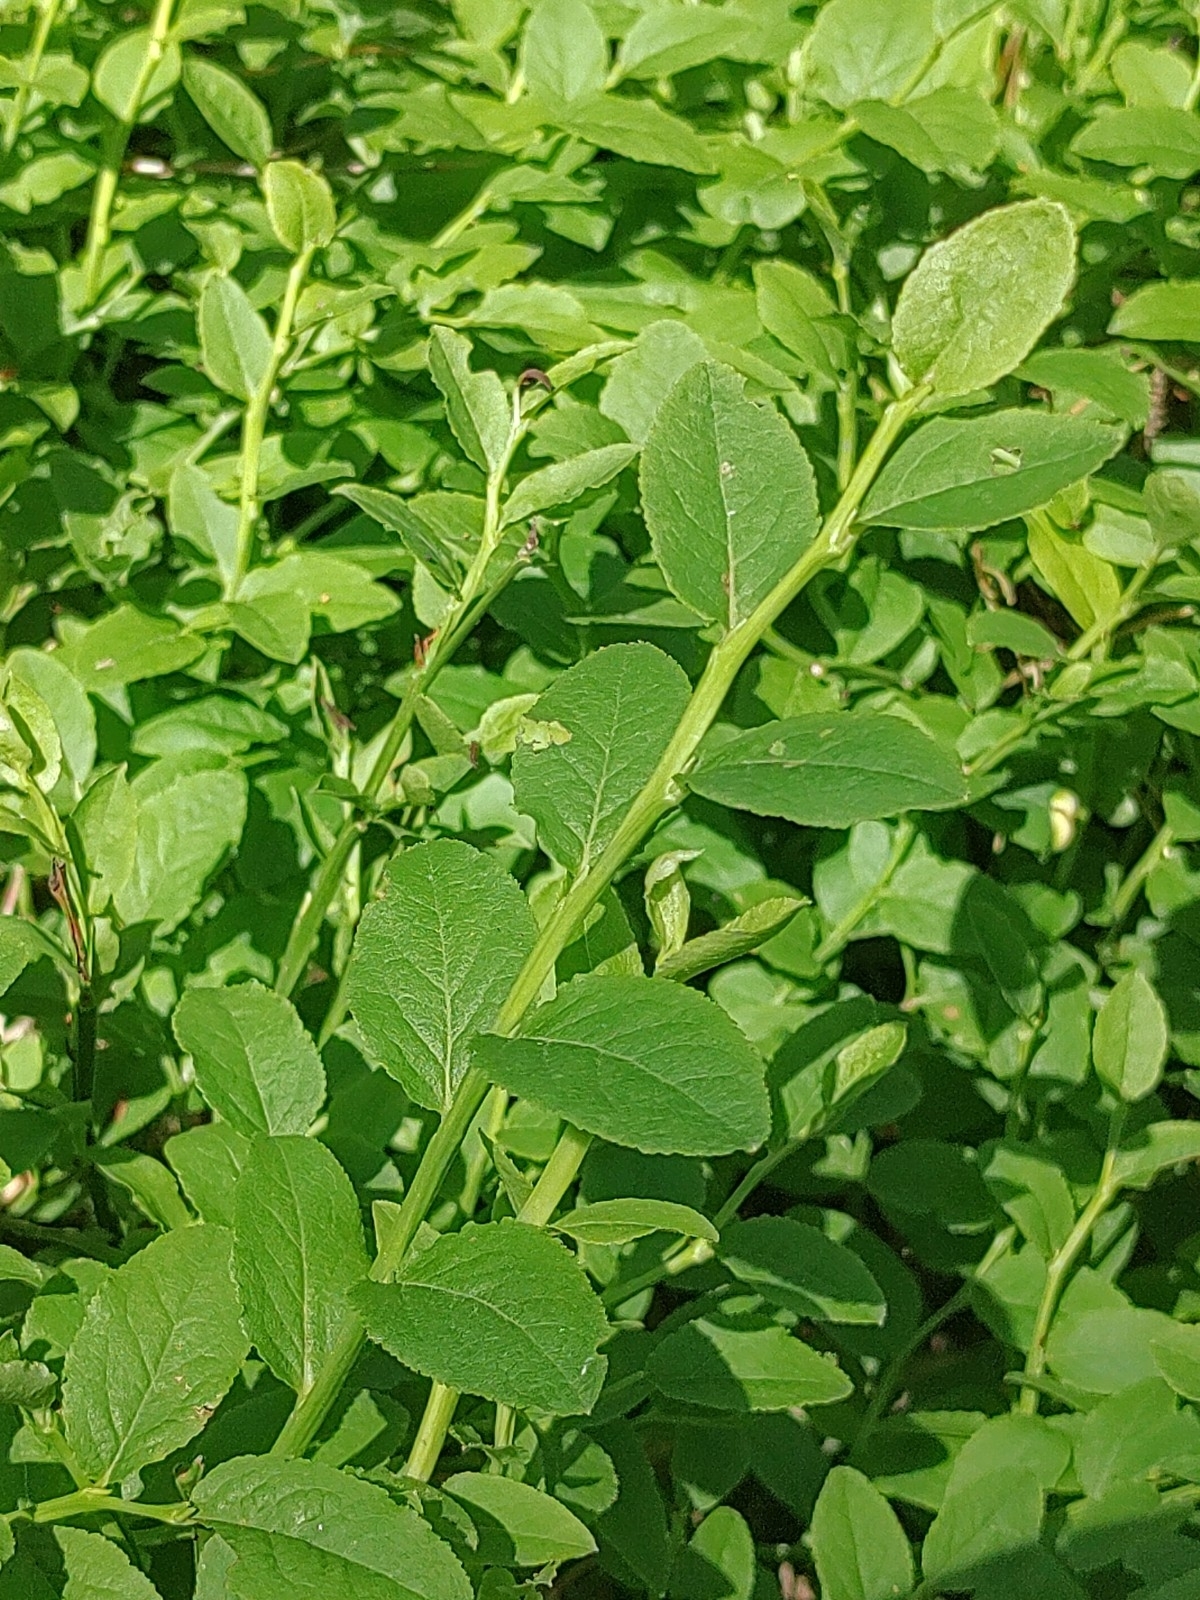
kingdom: Plantae
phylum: Tracheophyta
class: Magnoliopsida
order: Ericales
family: Ericaceae
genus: Vaccinium
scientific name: Vaccinium myrtillus
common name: Bilberry
